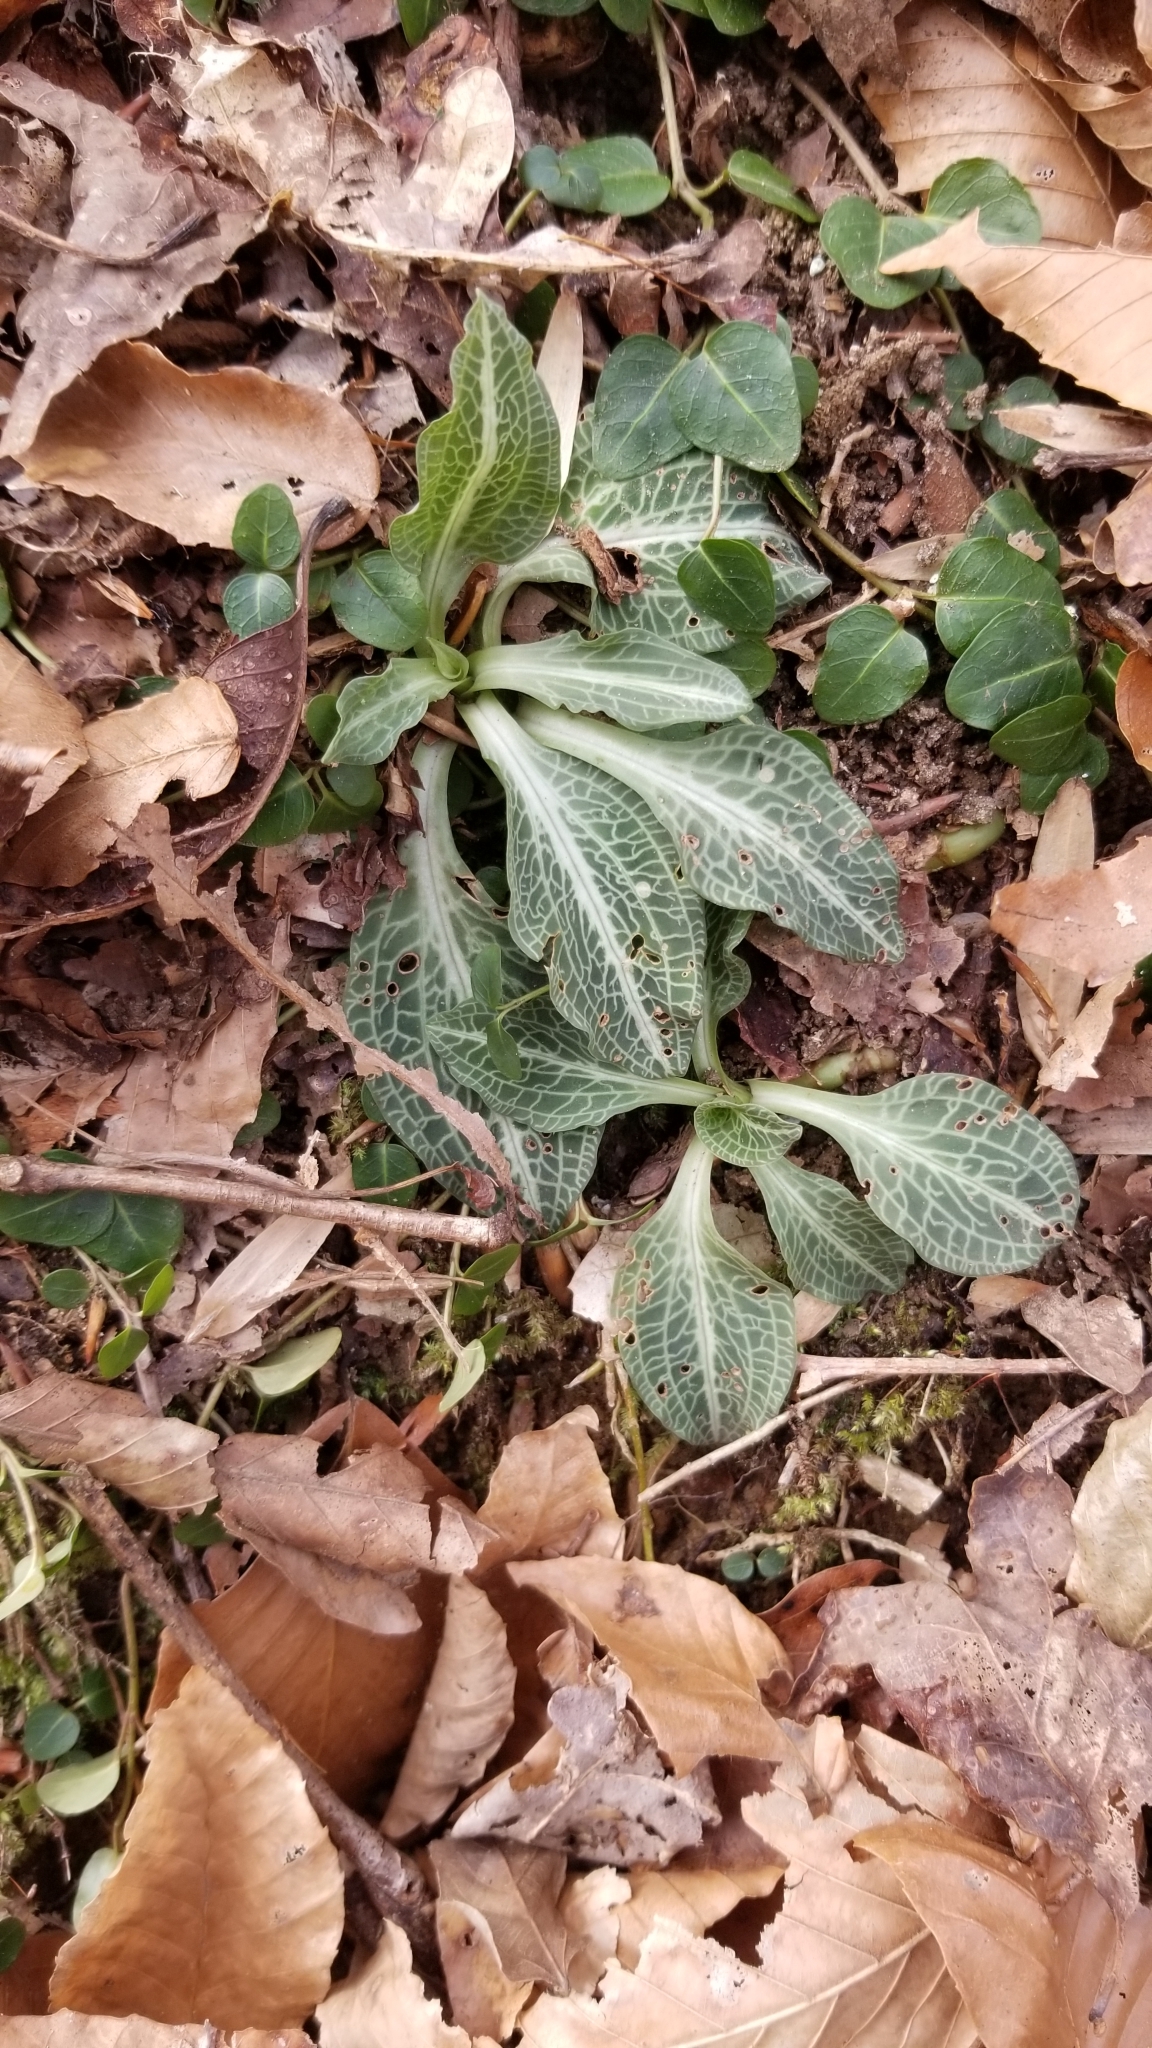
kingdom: Plantae
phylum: Tracheophyta
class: Liliopsida
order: Asparagales
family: Orchidaceae
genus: Goodyera
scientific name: Goodyera pubescens
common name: Downy rattlesnake-plantain
